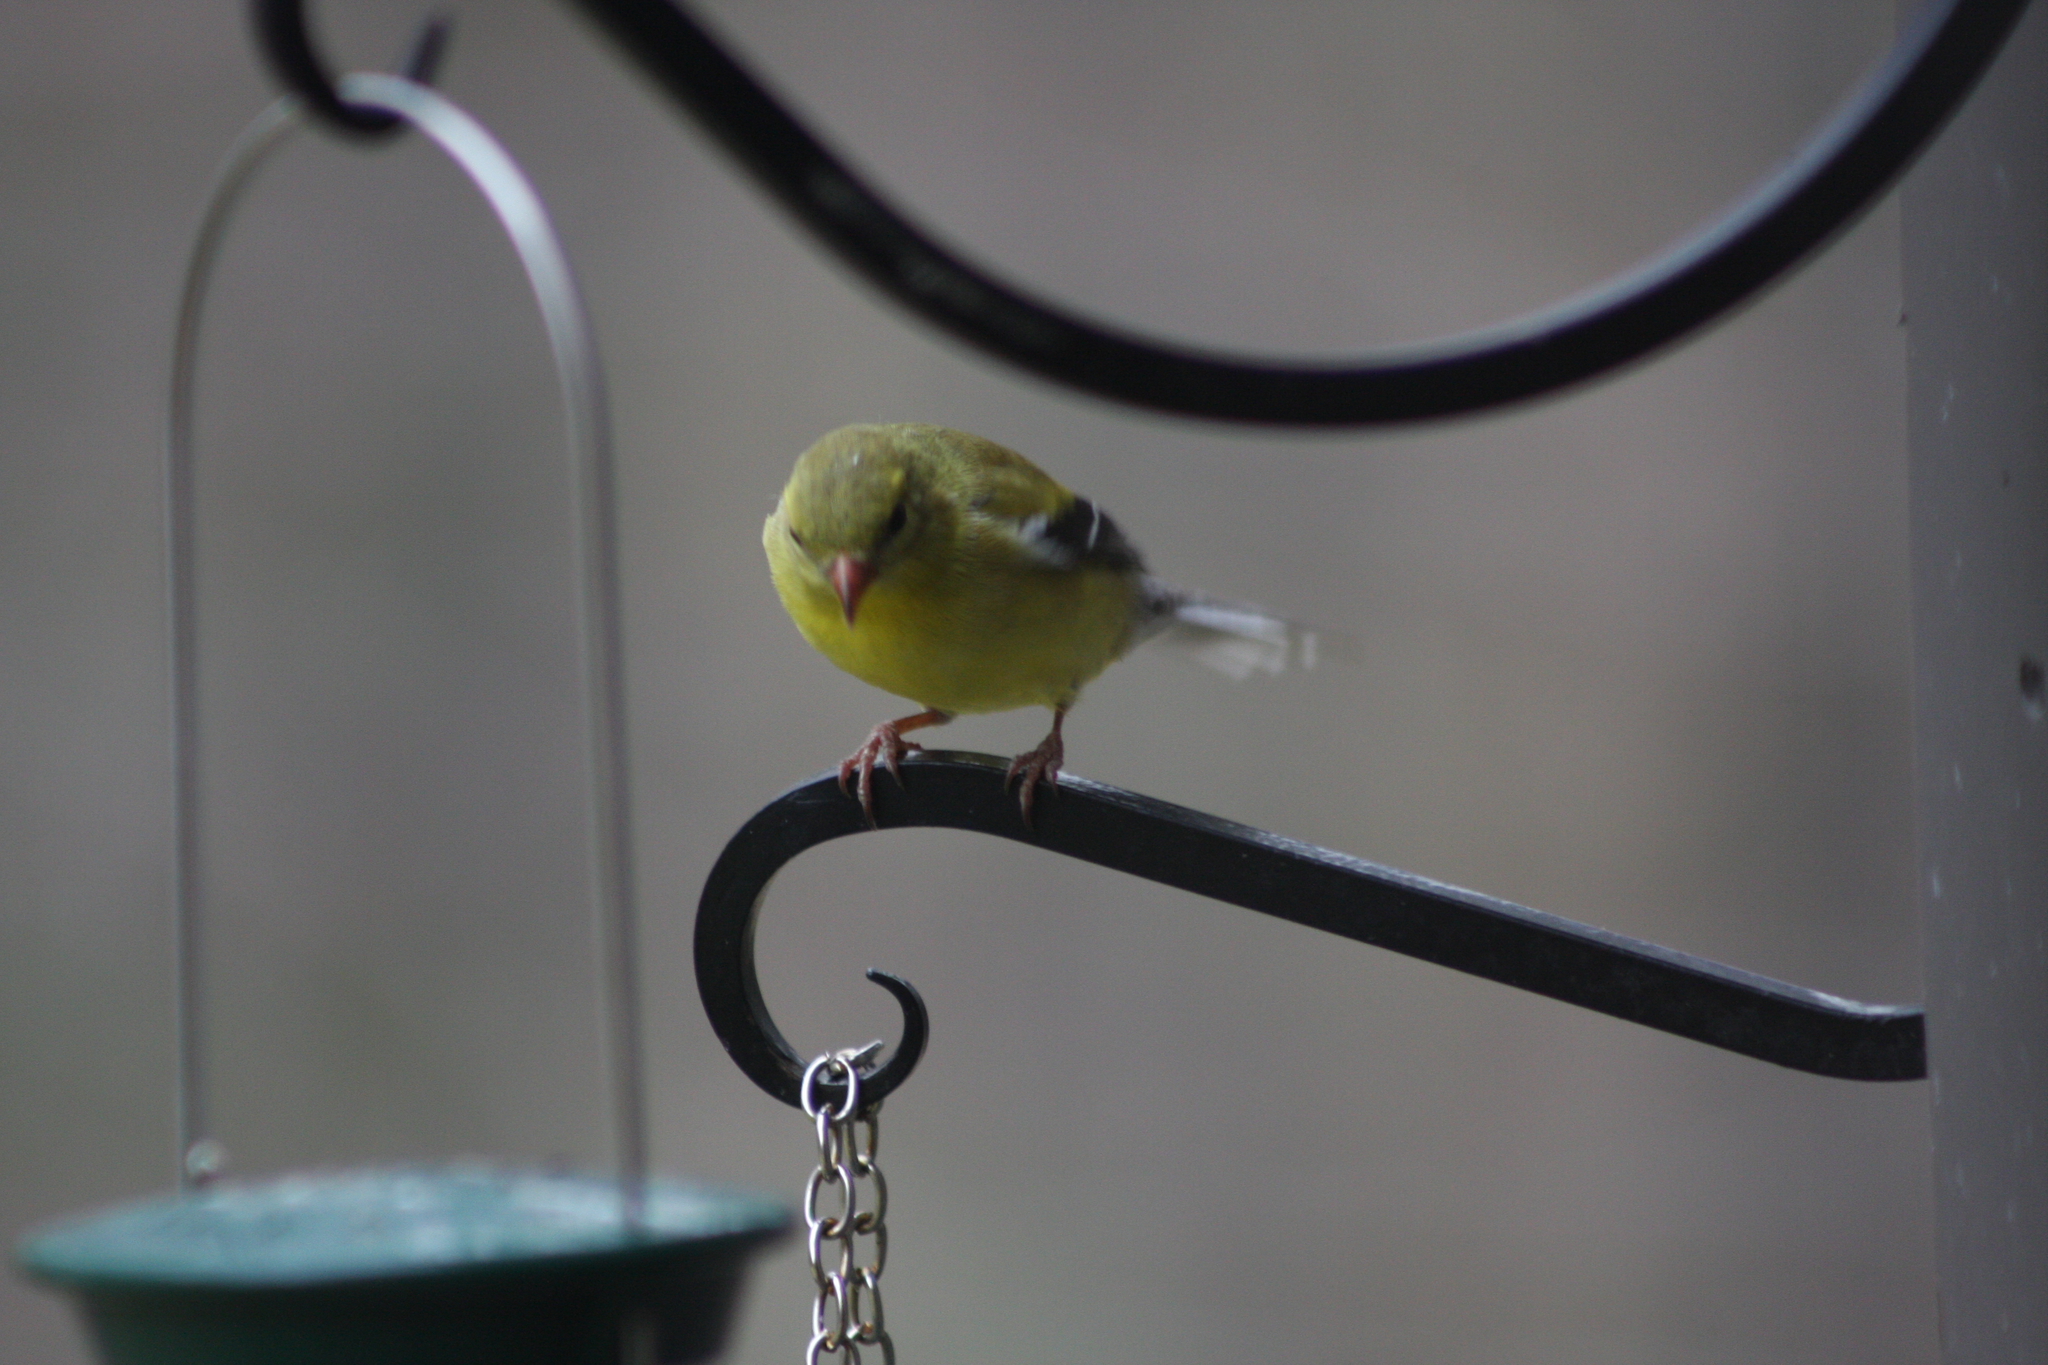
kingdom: Animalia
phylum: Chordata
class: Aves
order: Passeriformes
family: Fringillidae
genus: Spinus
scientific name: Spinus tristis
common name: American goldfinch
